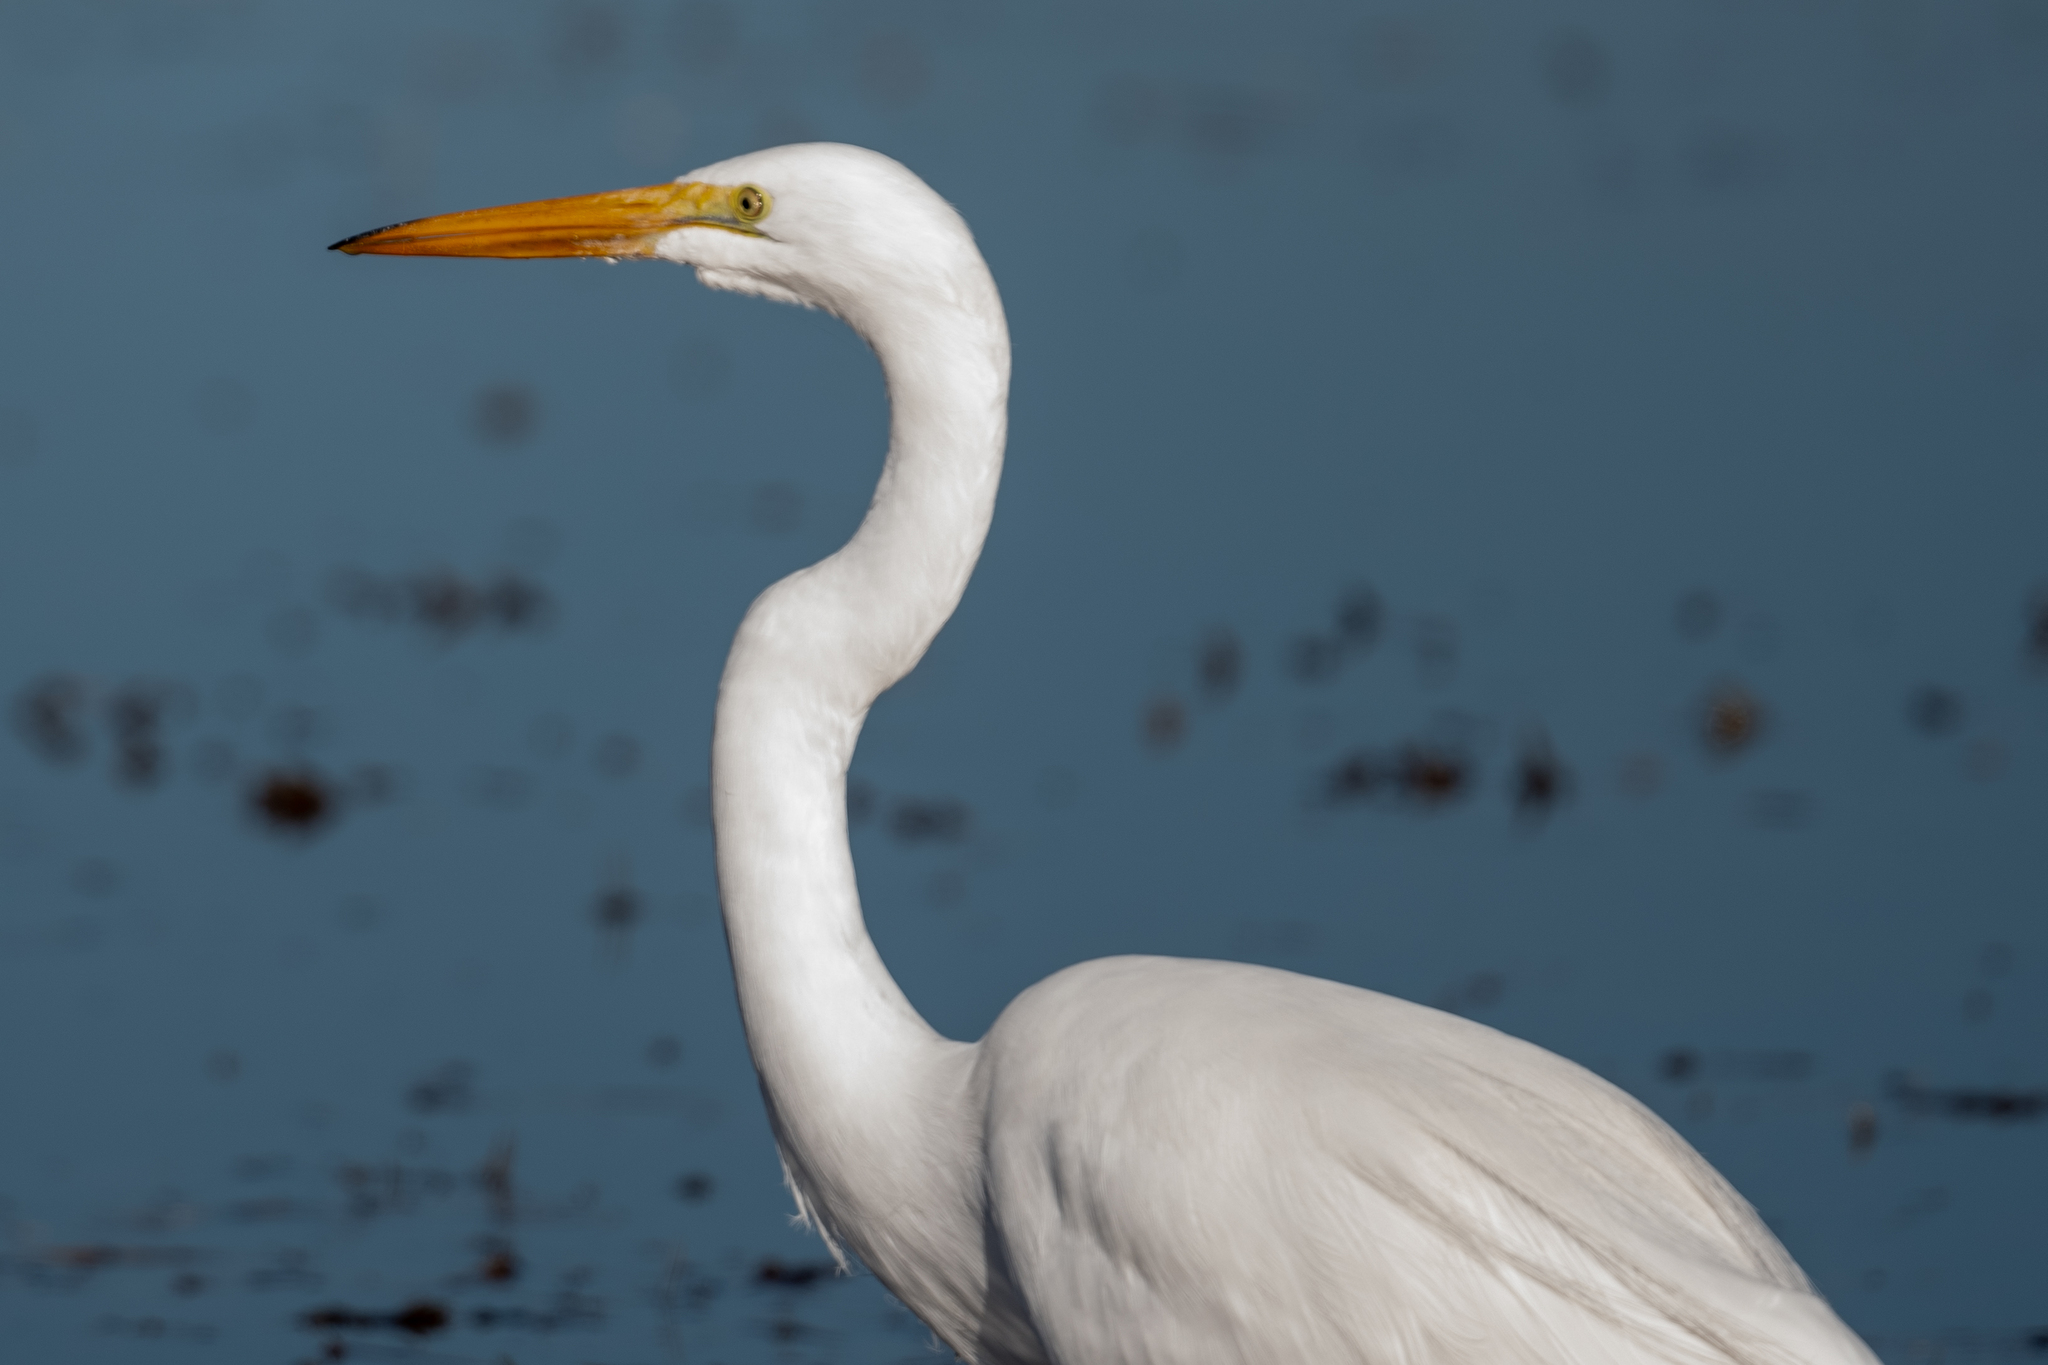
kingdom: Animalia
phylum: Chordata
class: Aves
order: Pelecaniformes
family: Ardeidae
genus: Ardea
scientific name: Ardea alba
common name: Great egret
